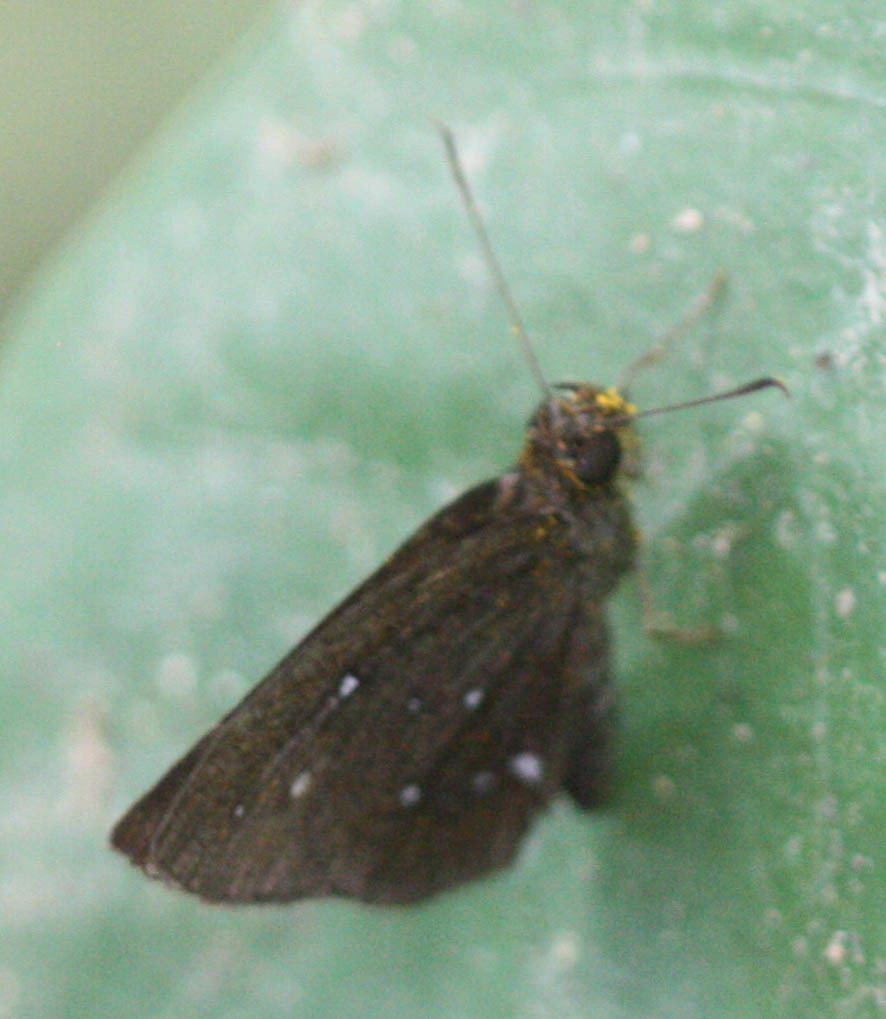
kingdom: Animalia
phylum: Arthropoda
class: Insecta
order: Lepidoptera
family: Hesperiidae
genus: Iambrix
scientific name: Iambrix salsala
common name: Chestnut bob
